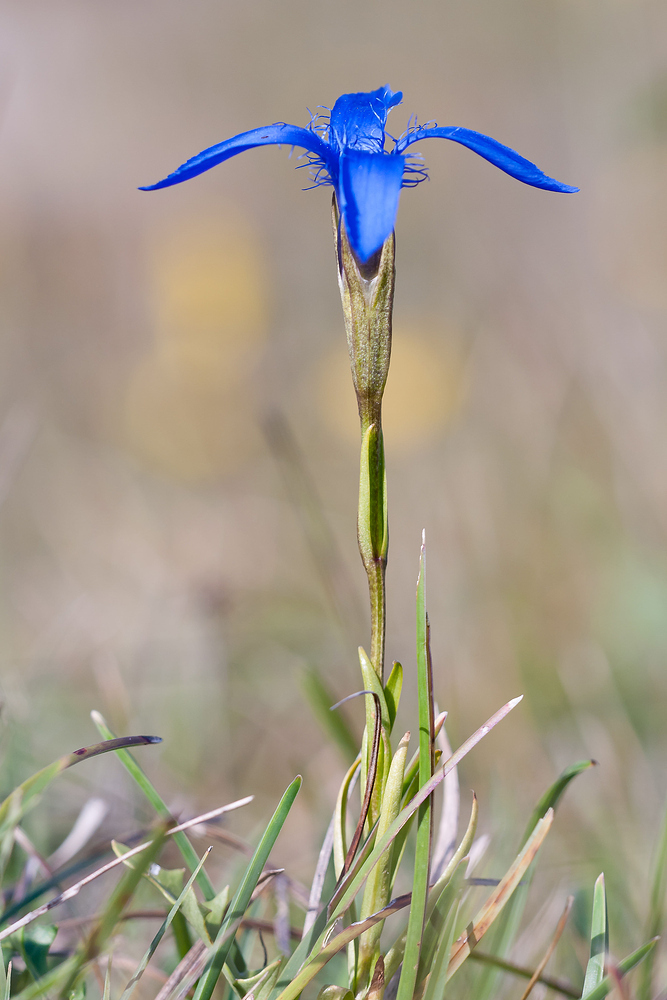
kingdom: Plantae
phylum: Tracheophyta
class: Magnoliopsida
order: Gentianales
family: Gentianaceae
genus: Gentianopsis
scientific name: Gentianopsis ciliata
